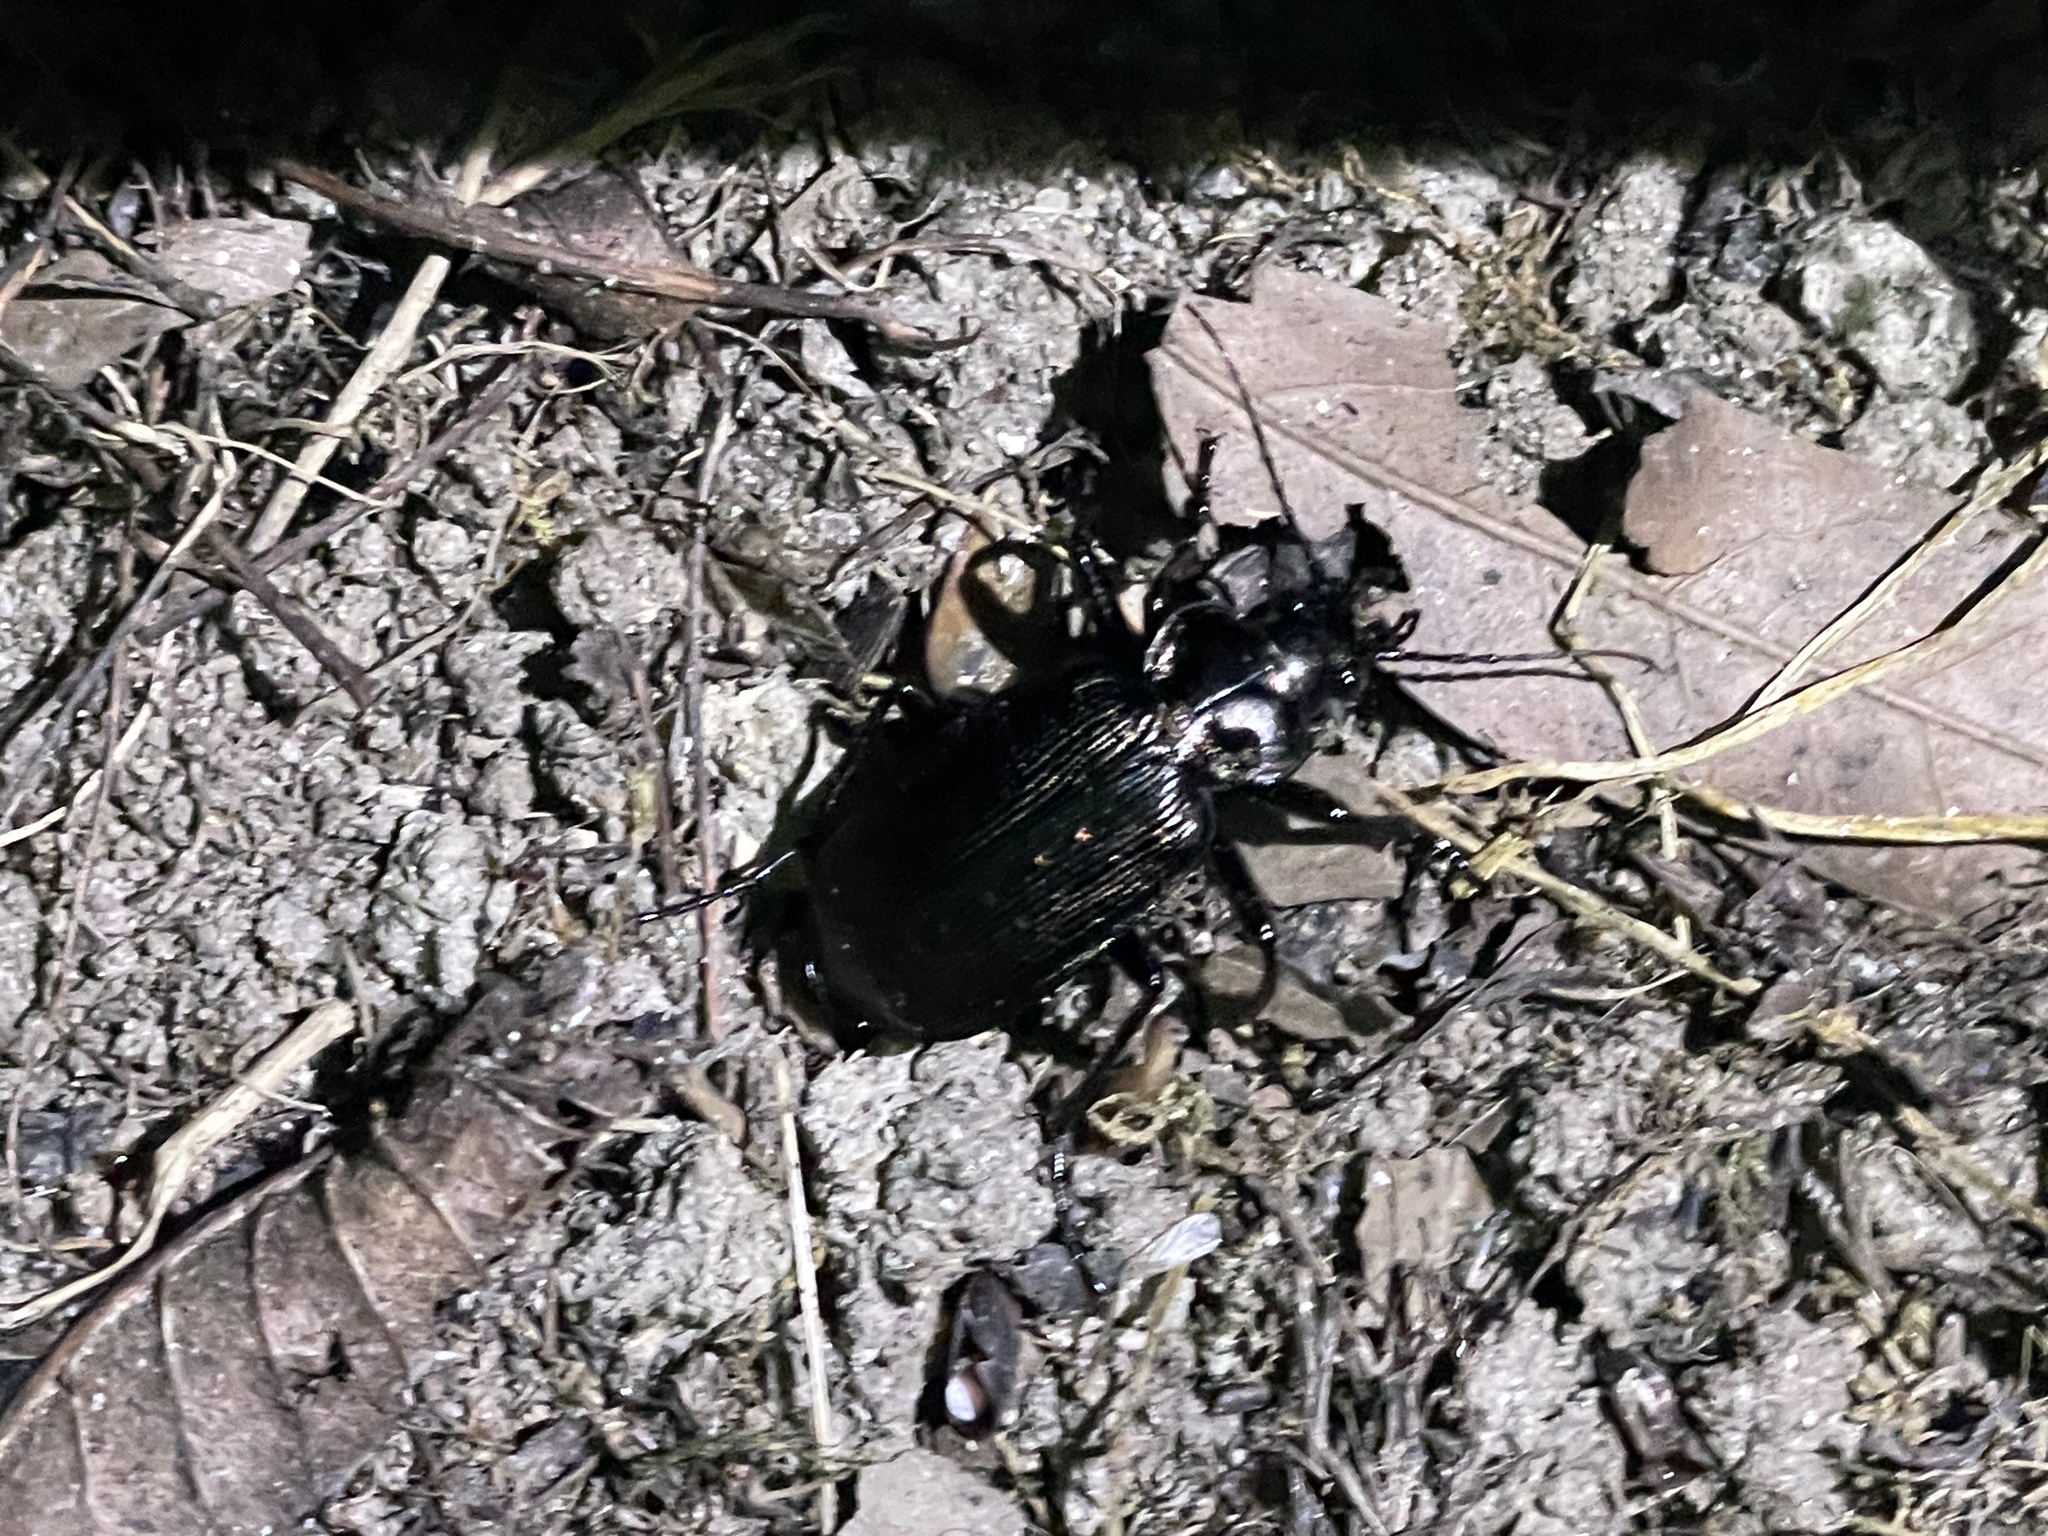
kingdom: Animalia
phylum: Arthropoda
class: Insecta
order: Coleoptera
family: Carabidae
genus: Calosoma
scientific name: Calosoma sayi
